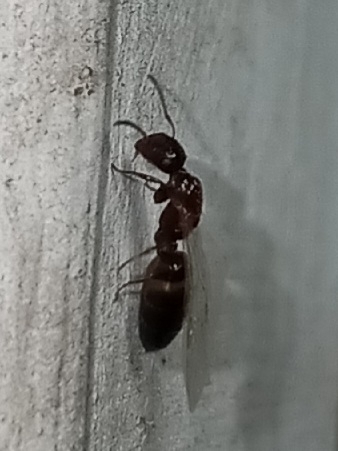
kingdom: Animalia
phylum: Arthropoda
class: Insecta
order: Hymenoptera
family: Formicidae
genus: Colobopsis
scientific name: Colobopsis
